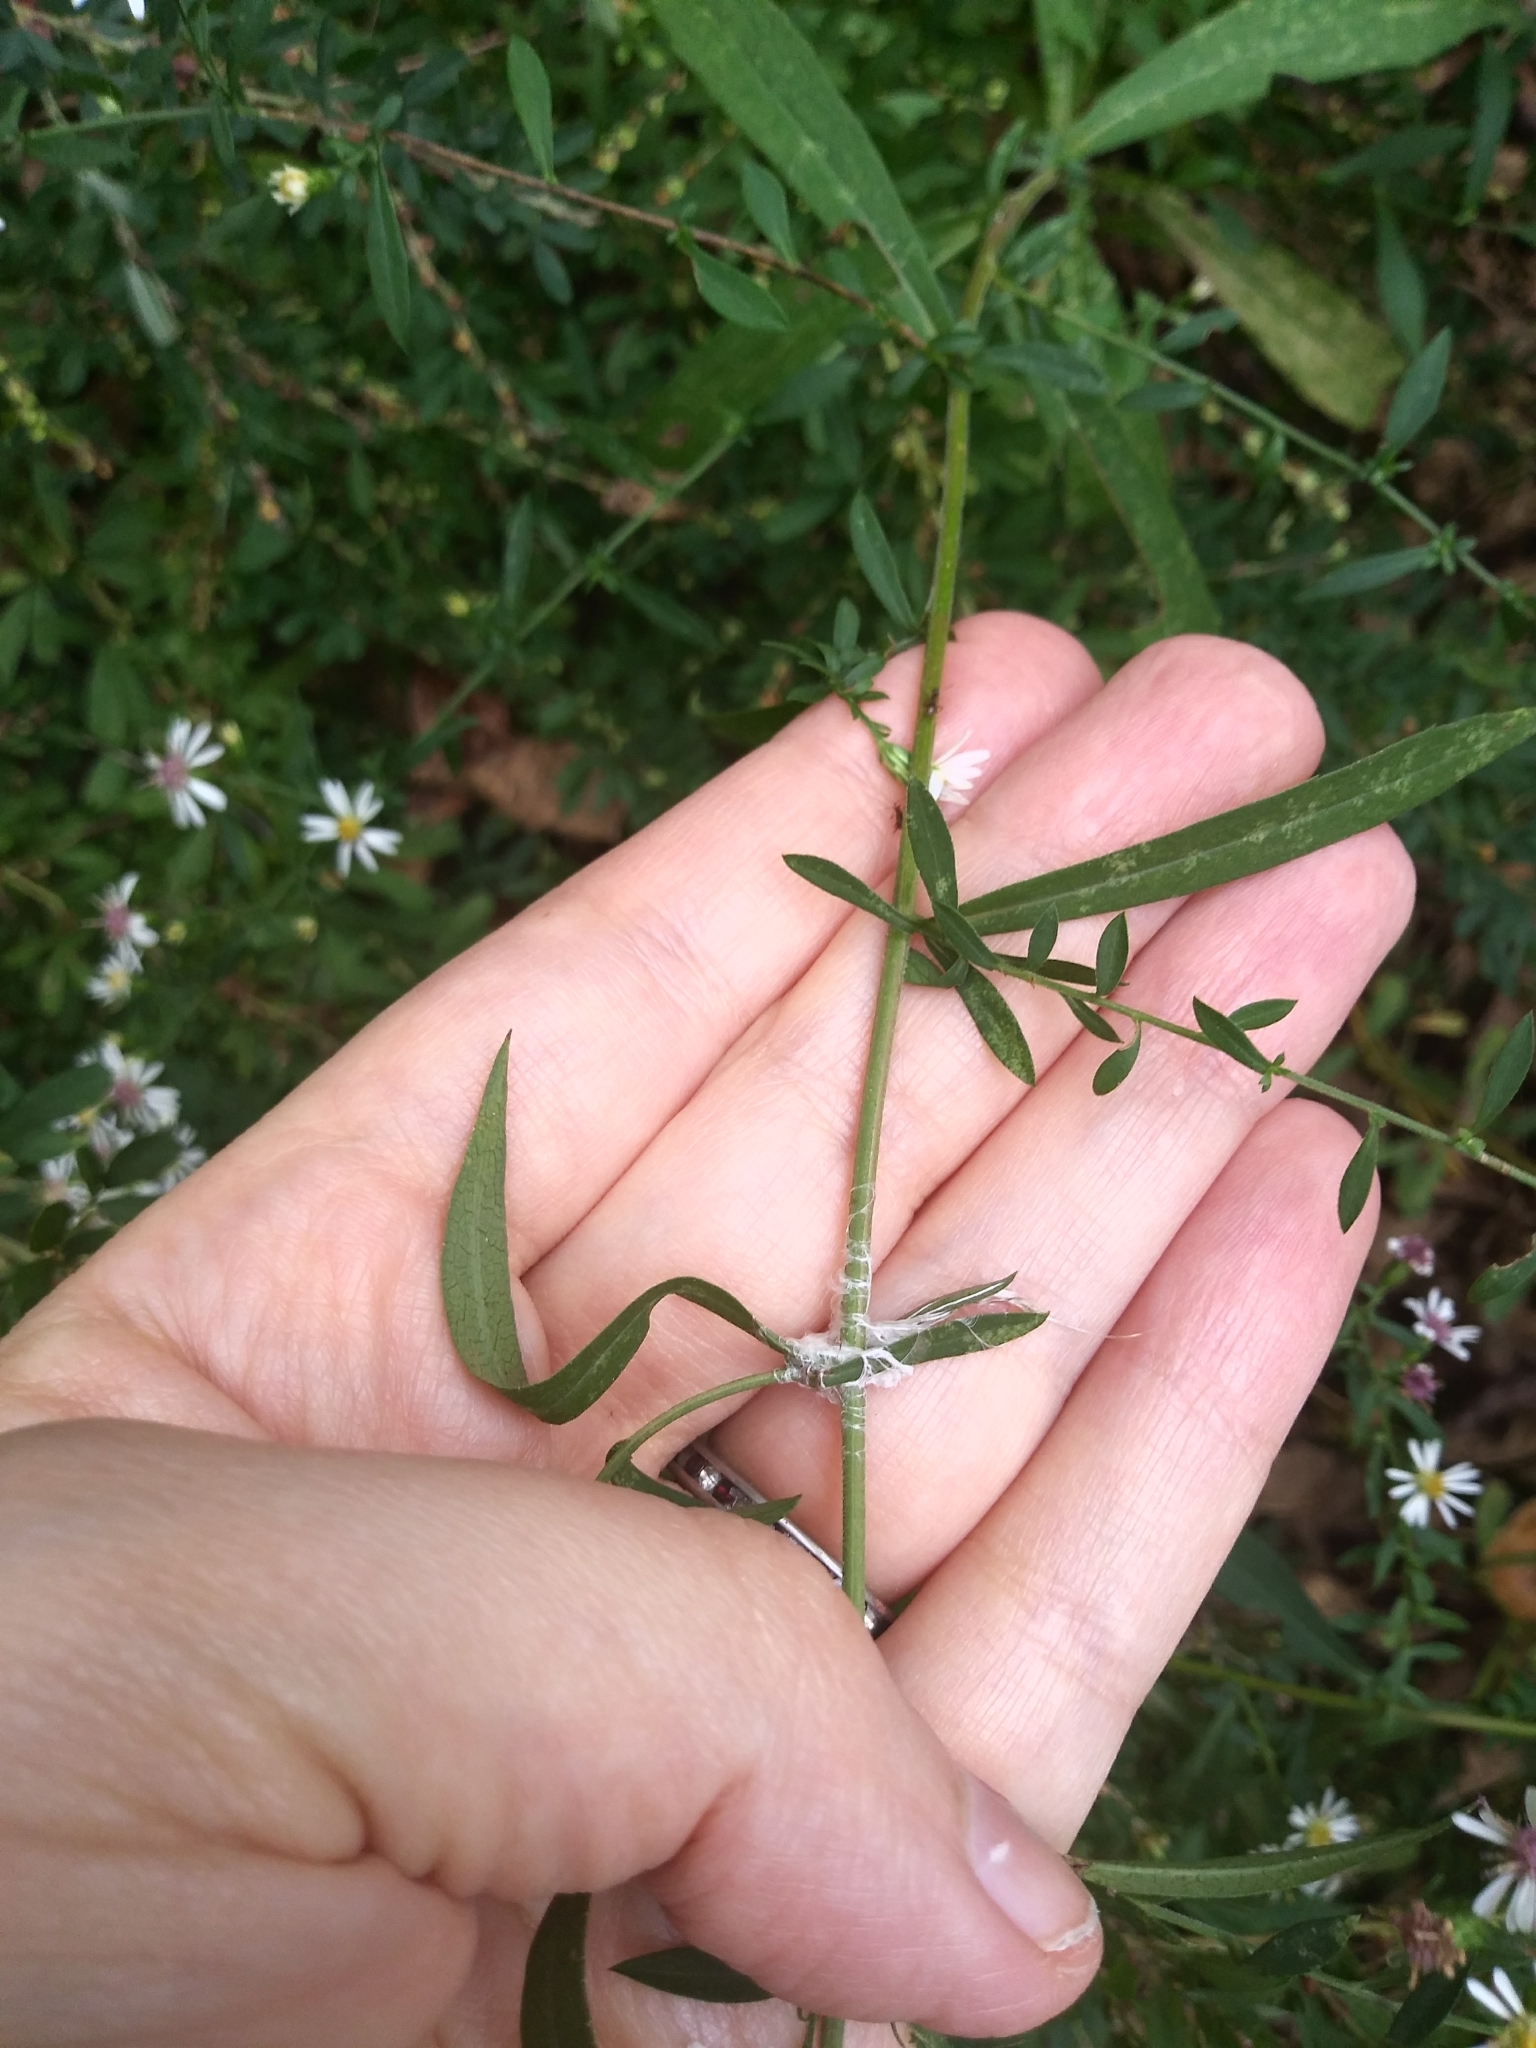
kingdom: Plantae
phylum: Tracheophyta
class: Magnoliopsida
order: Asterales
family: Asteraceae
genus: Symphyotrichum
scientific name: Symphyotrichum lateriflorum
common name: Calico aster
